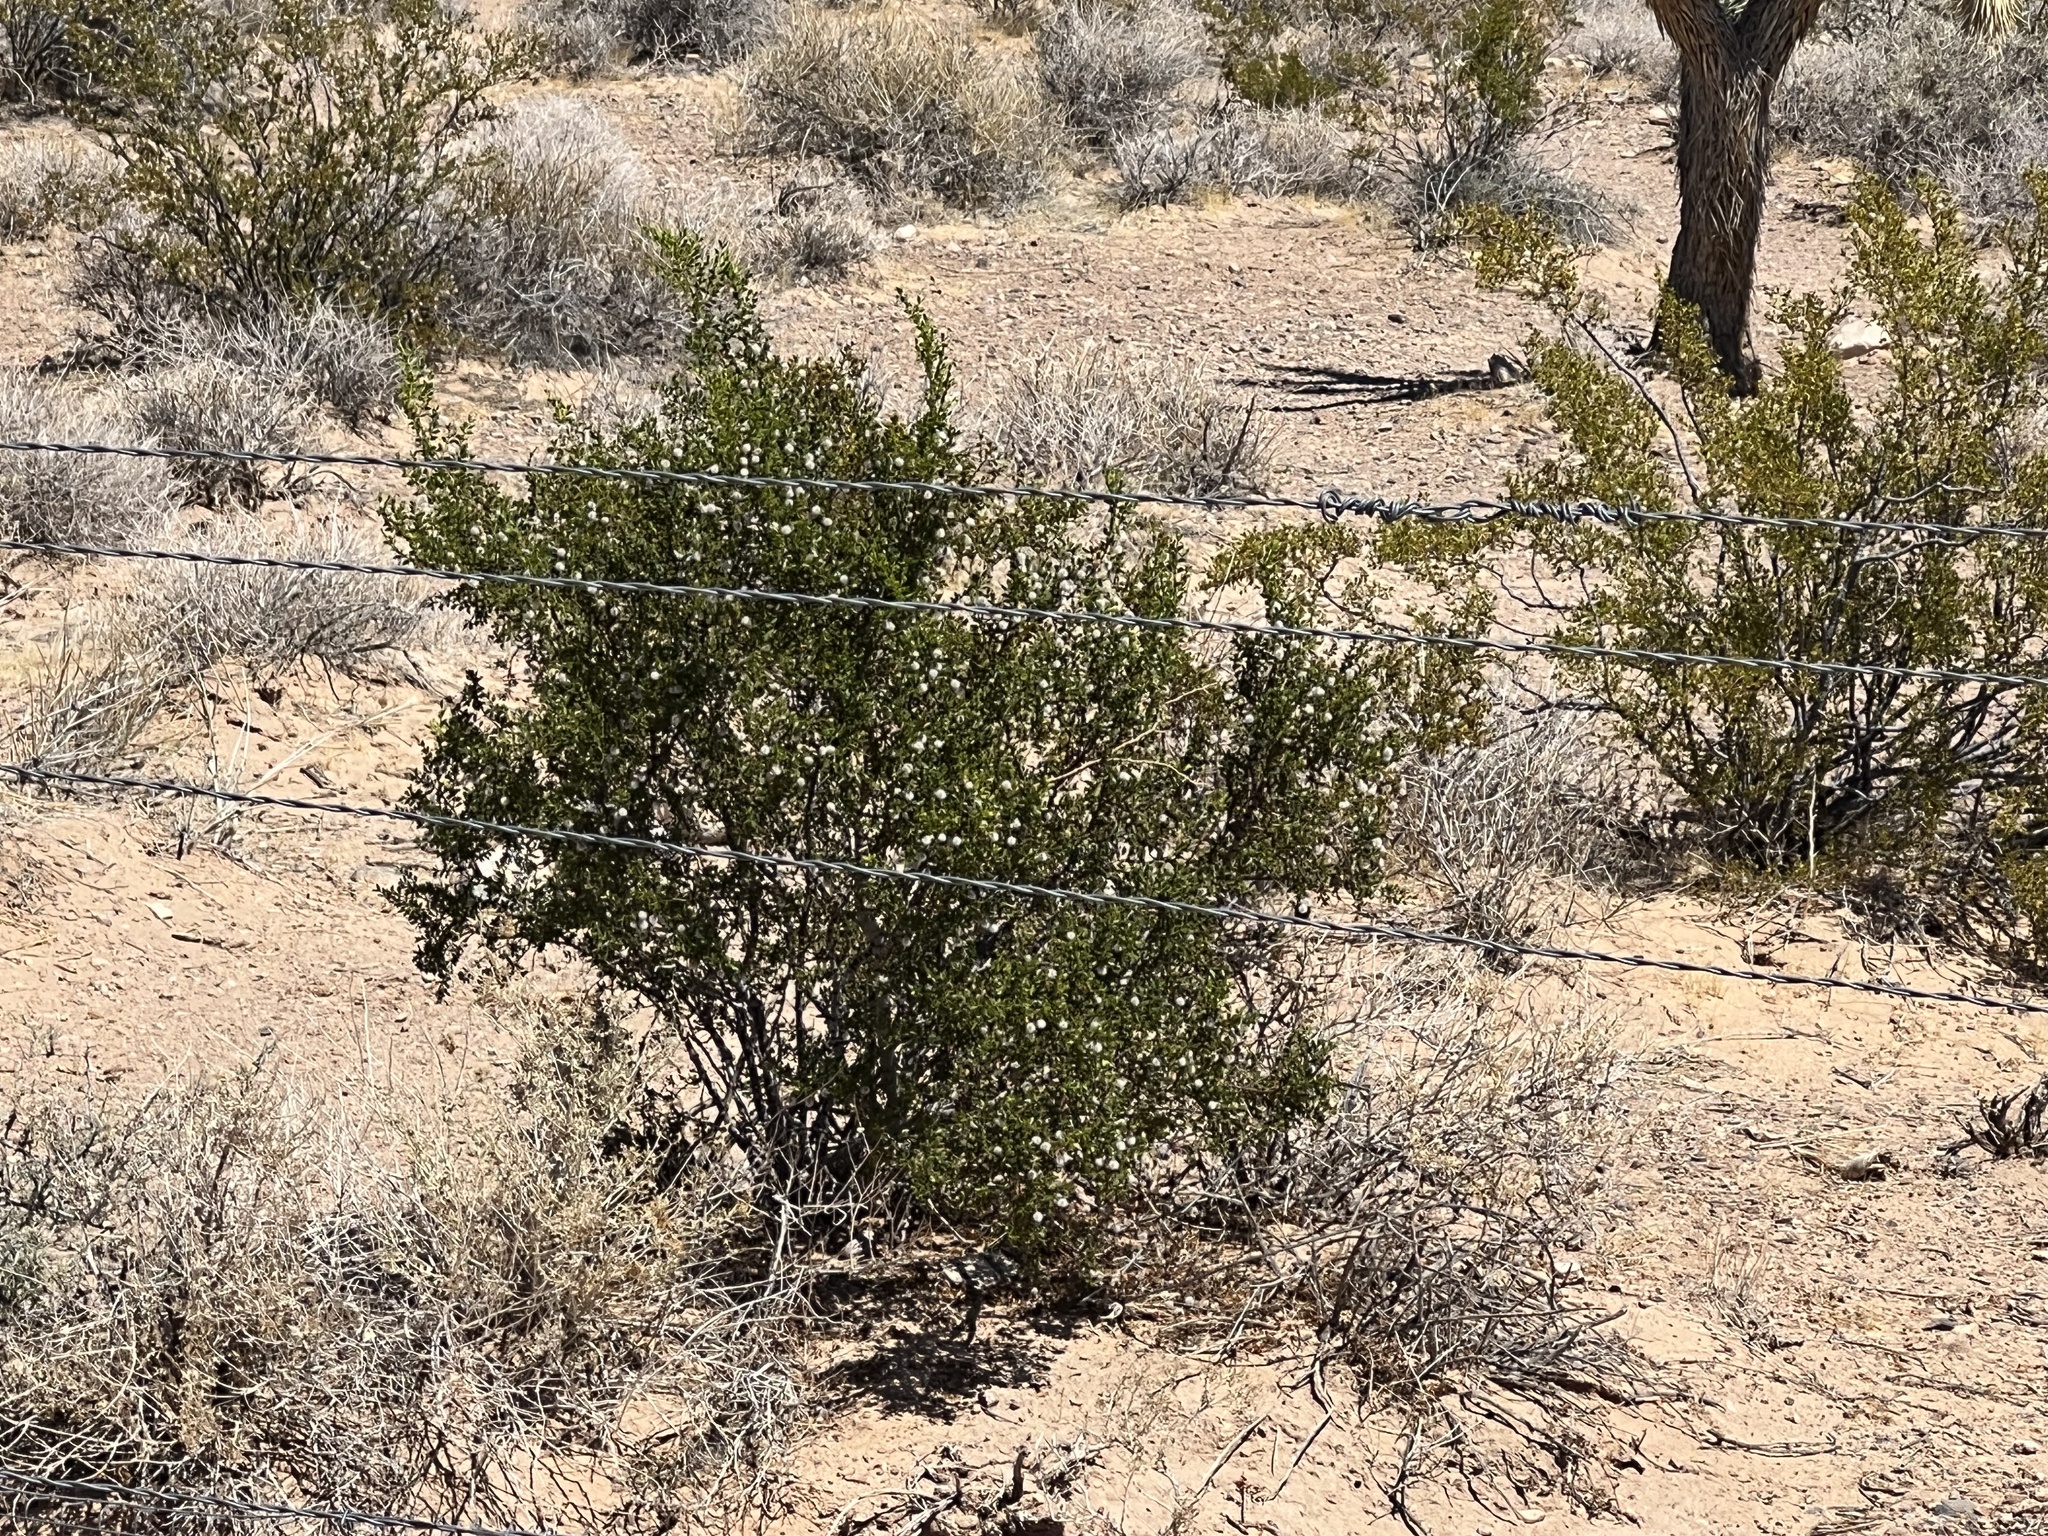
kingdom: Plantae
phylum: Tracheophyta
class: Magnoliopsida
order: Zygophyllales
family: Zygophyllaceae
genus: Larrea
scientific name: Larrea tridentata
